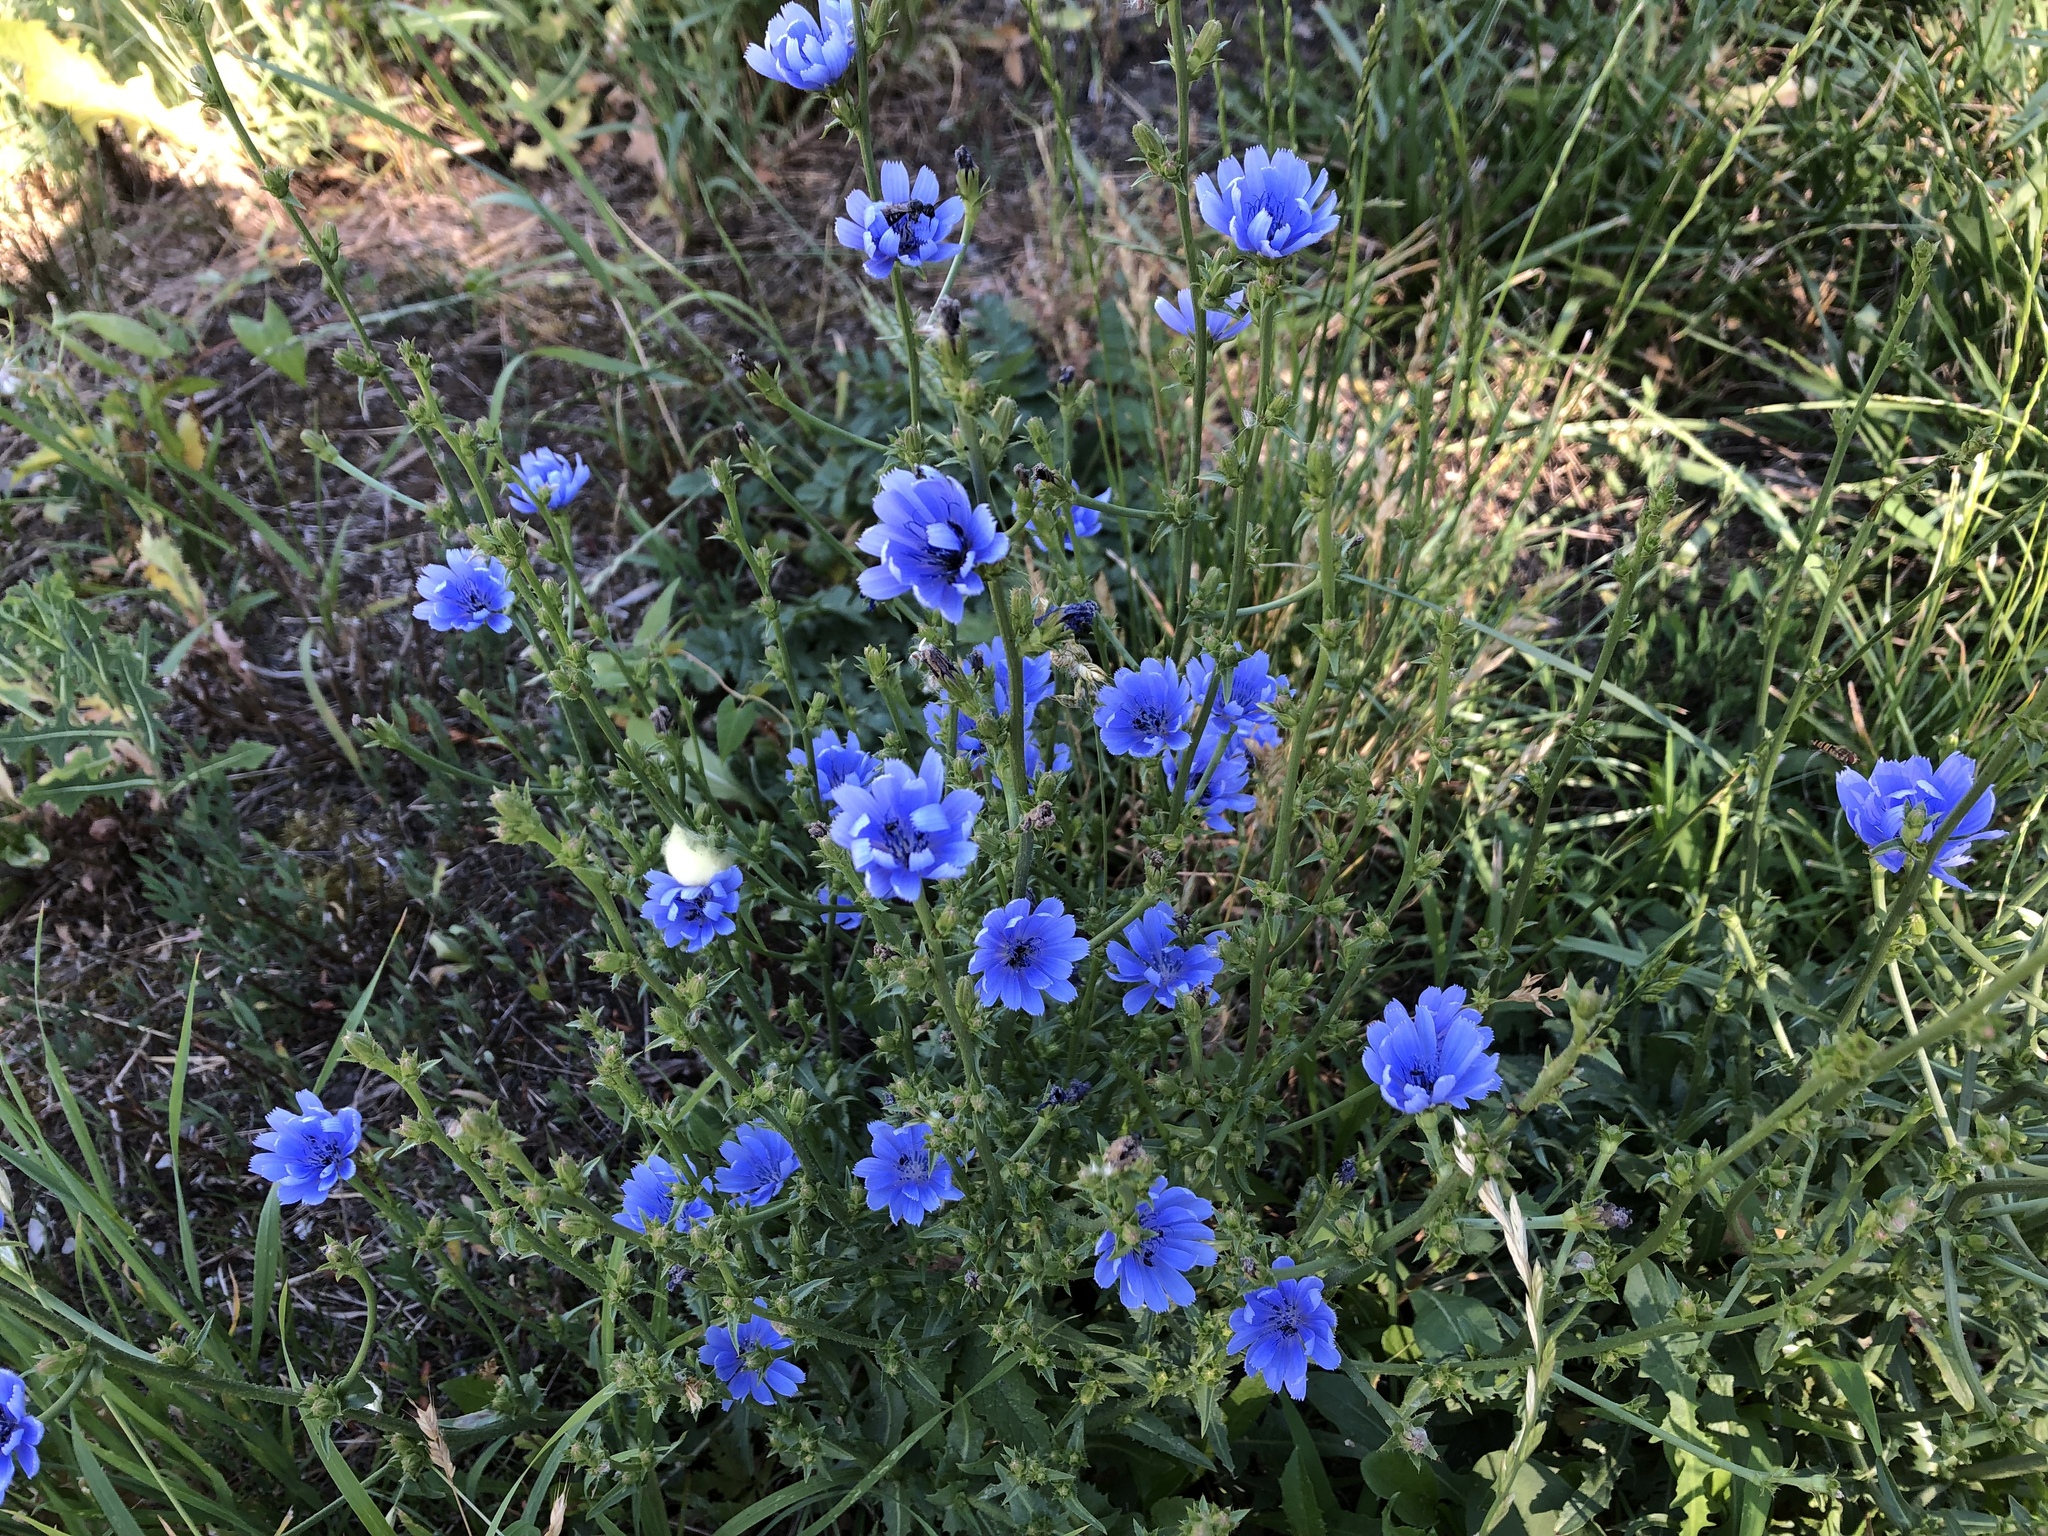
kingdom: Plantae
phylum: Tracheophyta
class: Magnoliopsida
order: Asterales
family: Asteraceae
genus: Cichorium
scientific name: Cichorium intybus
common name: Chicory
